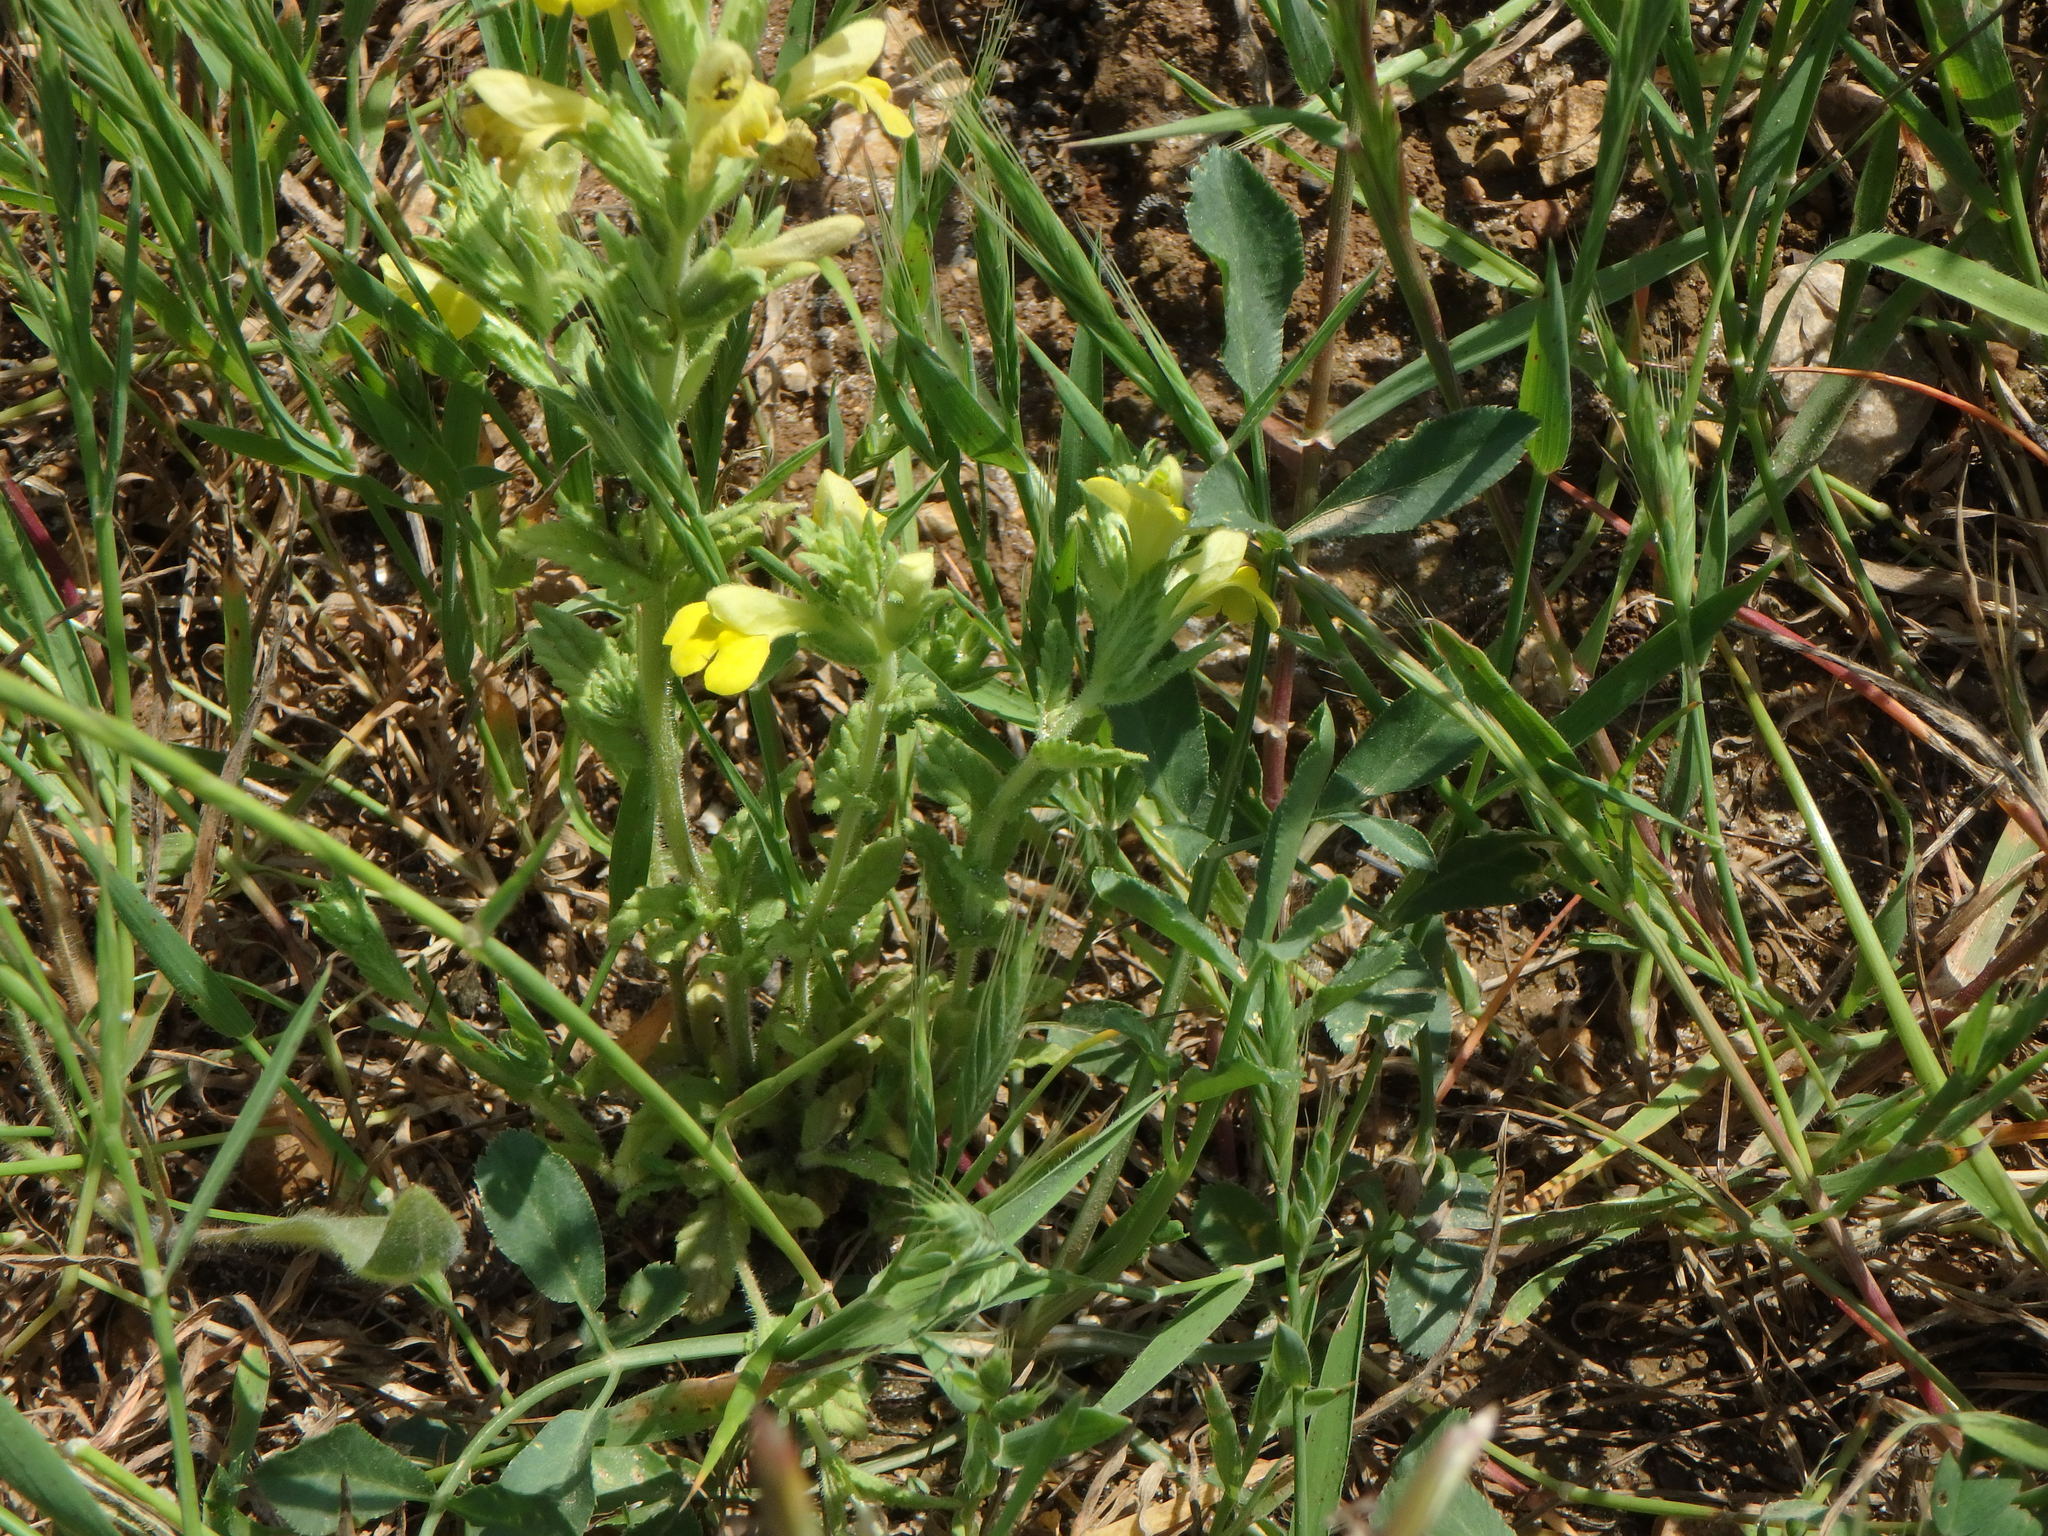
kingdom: Plantae
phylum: Tracheophyta
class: Magnoliopsida
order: Lamiales
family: Orobanchaceae
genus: Bellardia
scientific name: Bellardia viscosa
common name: Sticky parentucellia
